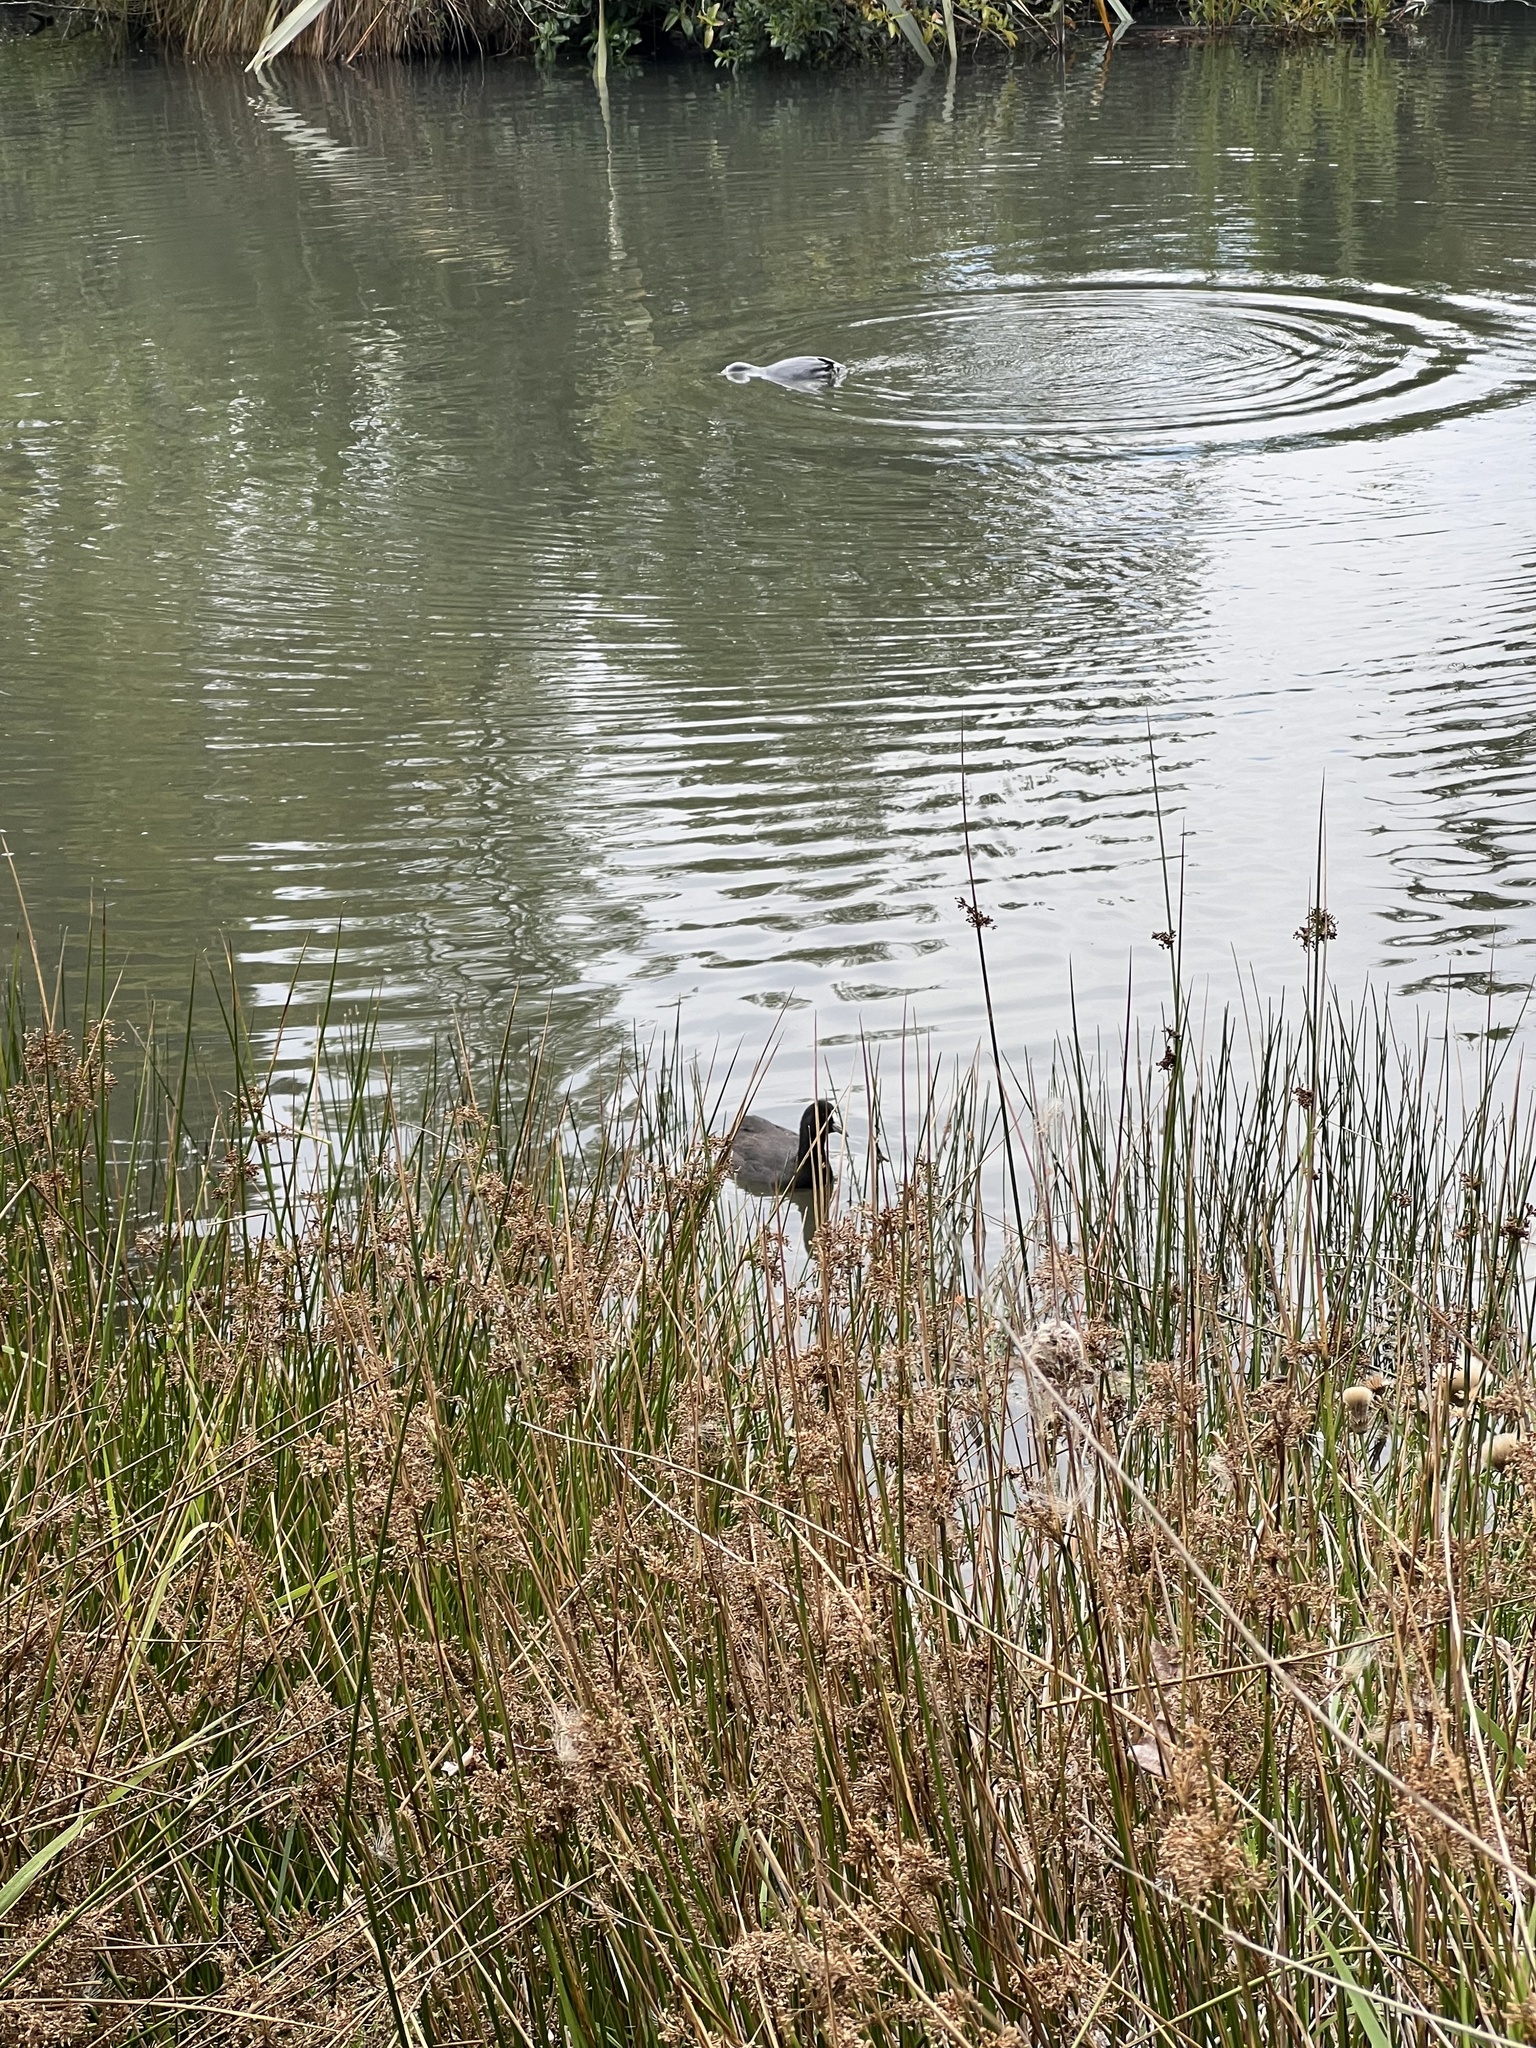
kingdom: Animalia
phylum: Chordata
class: Aves
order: Gruiformes
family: Rallidae
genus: Fulica
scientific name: Fulica atra
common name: Eurasian coot
